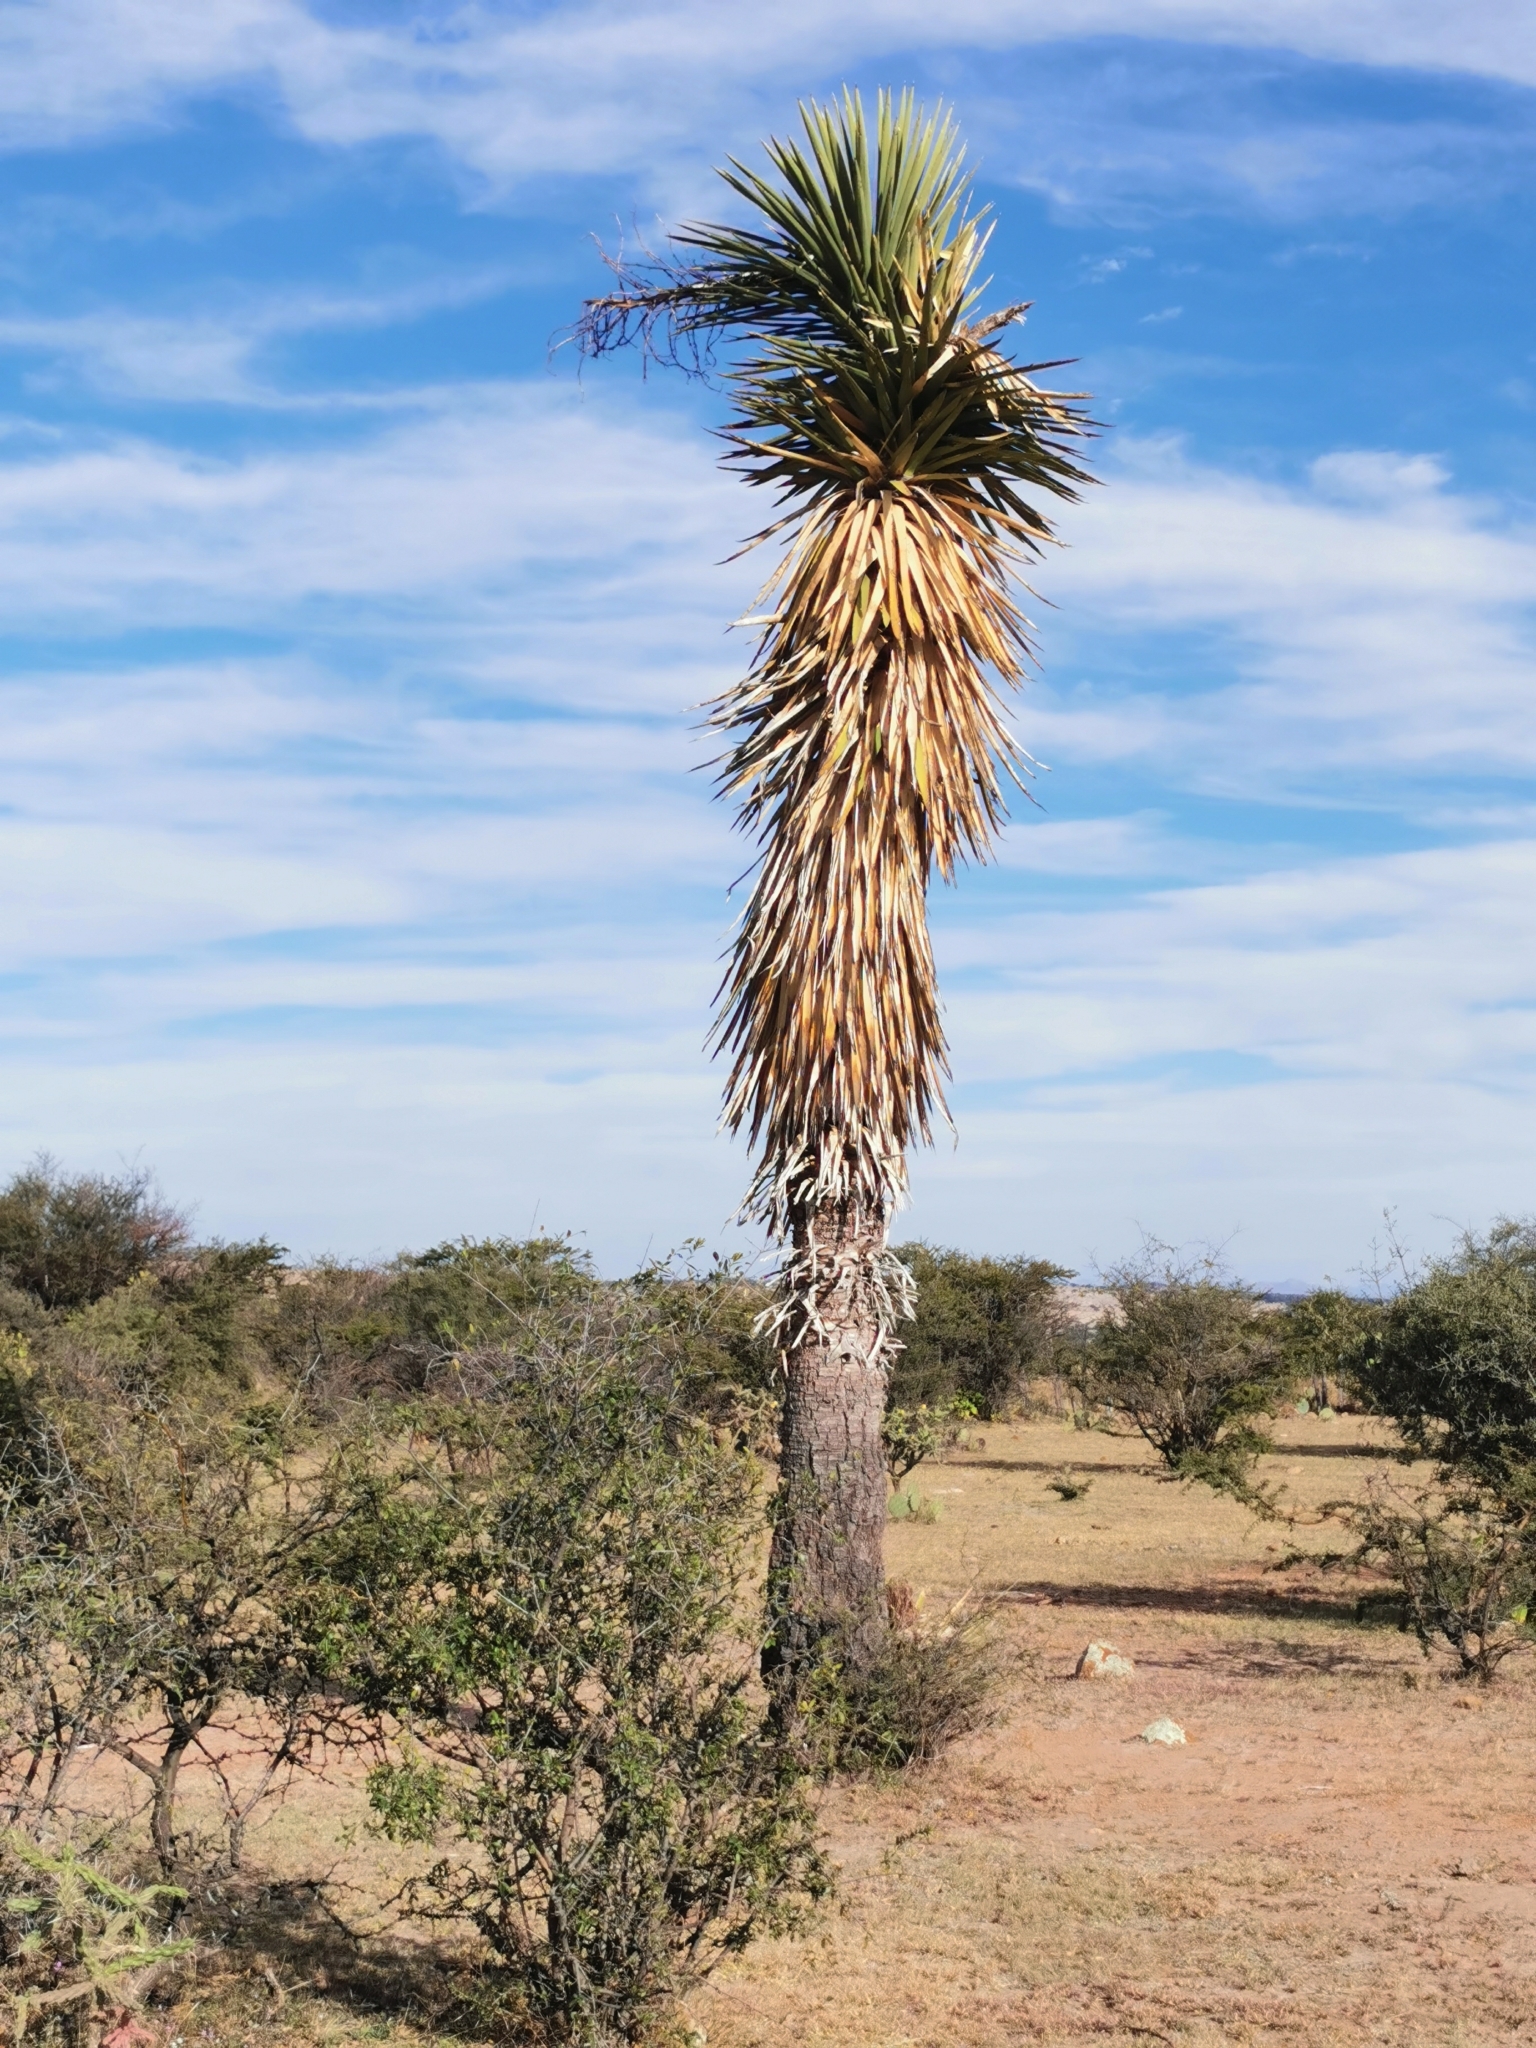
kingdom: Plantae
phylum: Tracheophyta
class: Liliopsida
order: Asparagales
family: Asparagaceae
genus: Yucca
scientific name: Yucca decipiens
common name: Chinese palm
